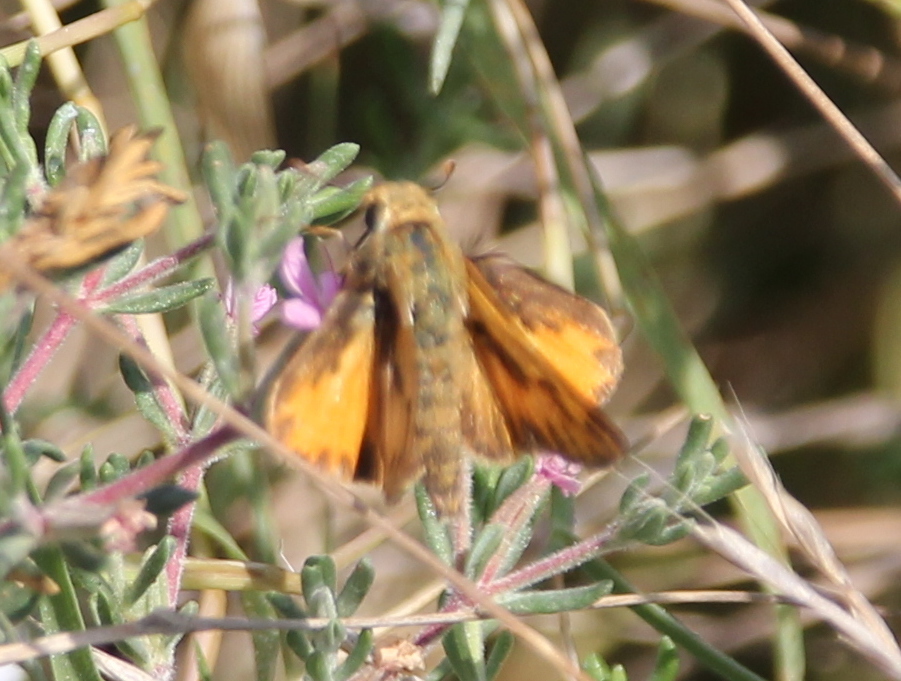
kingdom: Animalia
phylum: Arthropoda
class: Insecta
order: Lepidoptera
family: Hesperiidae
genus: Hylephila
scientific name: Hylephila phyleus
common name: Fiery skipper
